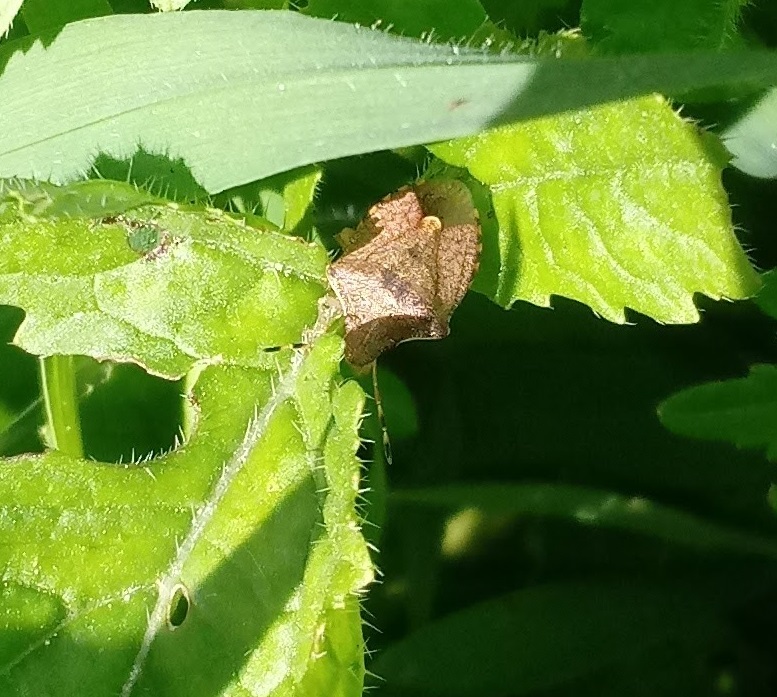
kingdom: Animalia
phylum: Arthropoda
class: Insecta
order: Hemiptera
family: Pentatomidae
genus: Holcostethus
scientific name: Holcostethus strictus
